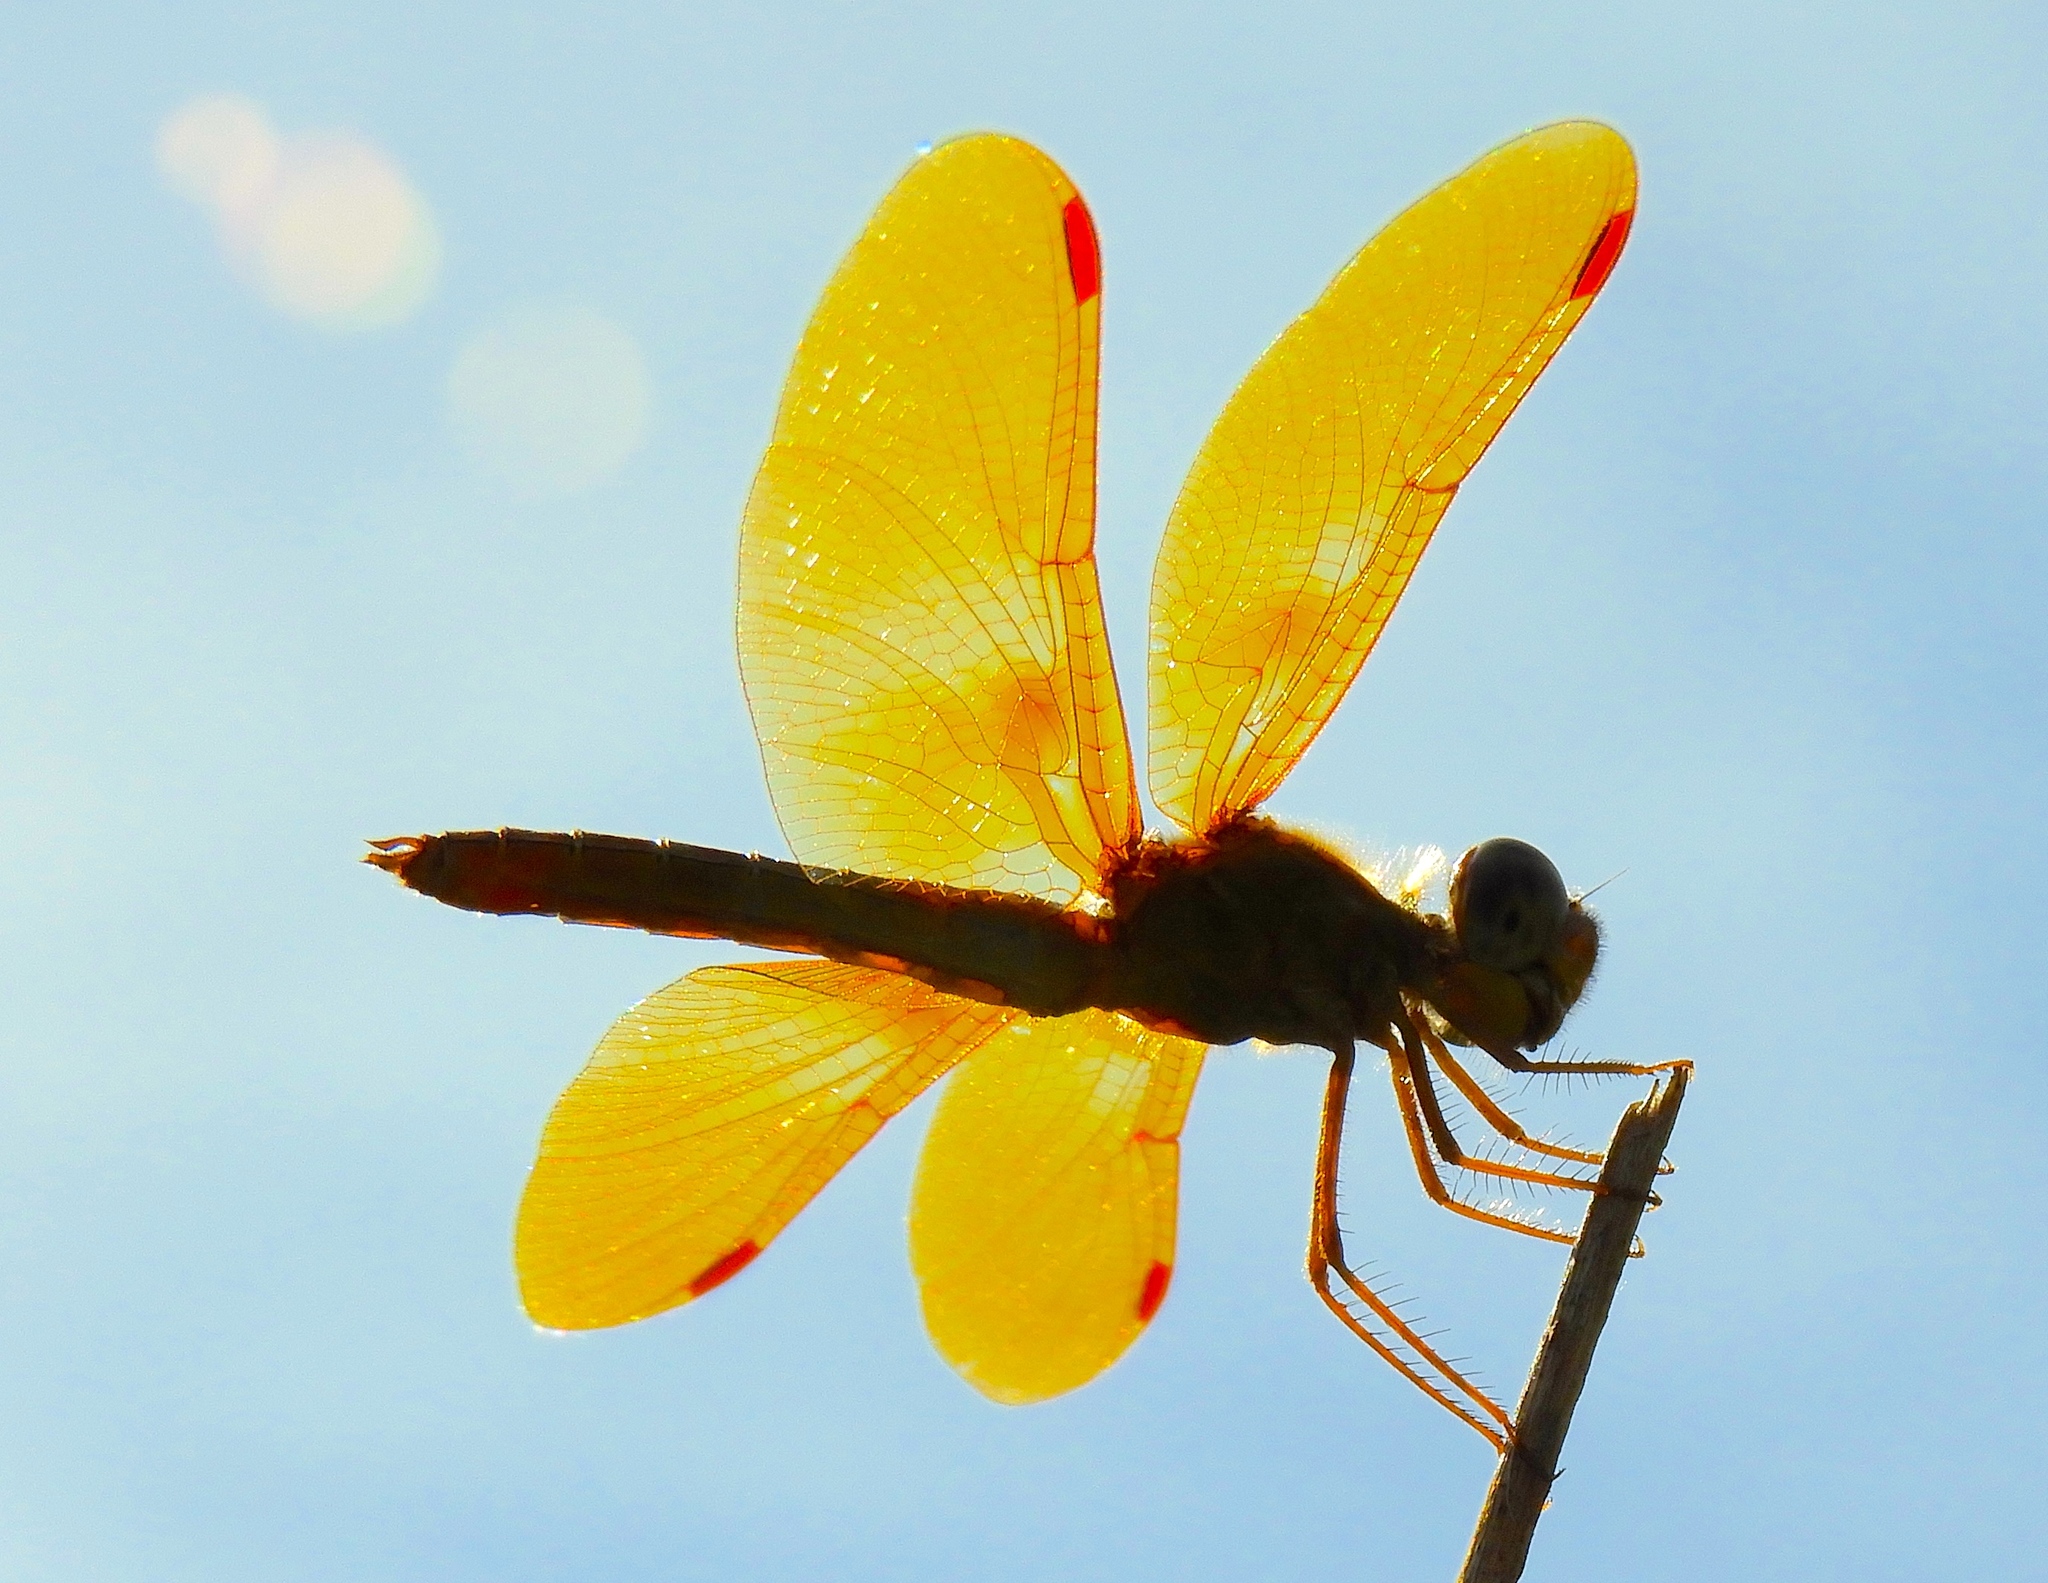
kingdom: Animalia
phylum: Arthropoda
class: Insecta
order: Odonata
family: Libellulidae
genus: Perithemis
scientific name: Perithemis intensa
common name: Mexican amberwing
